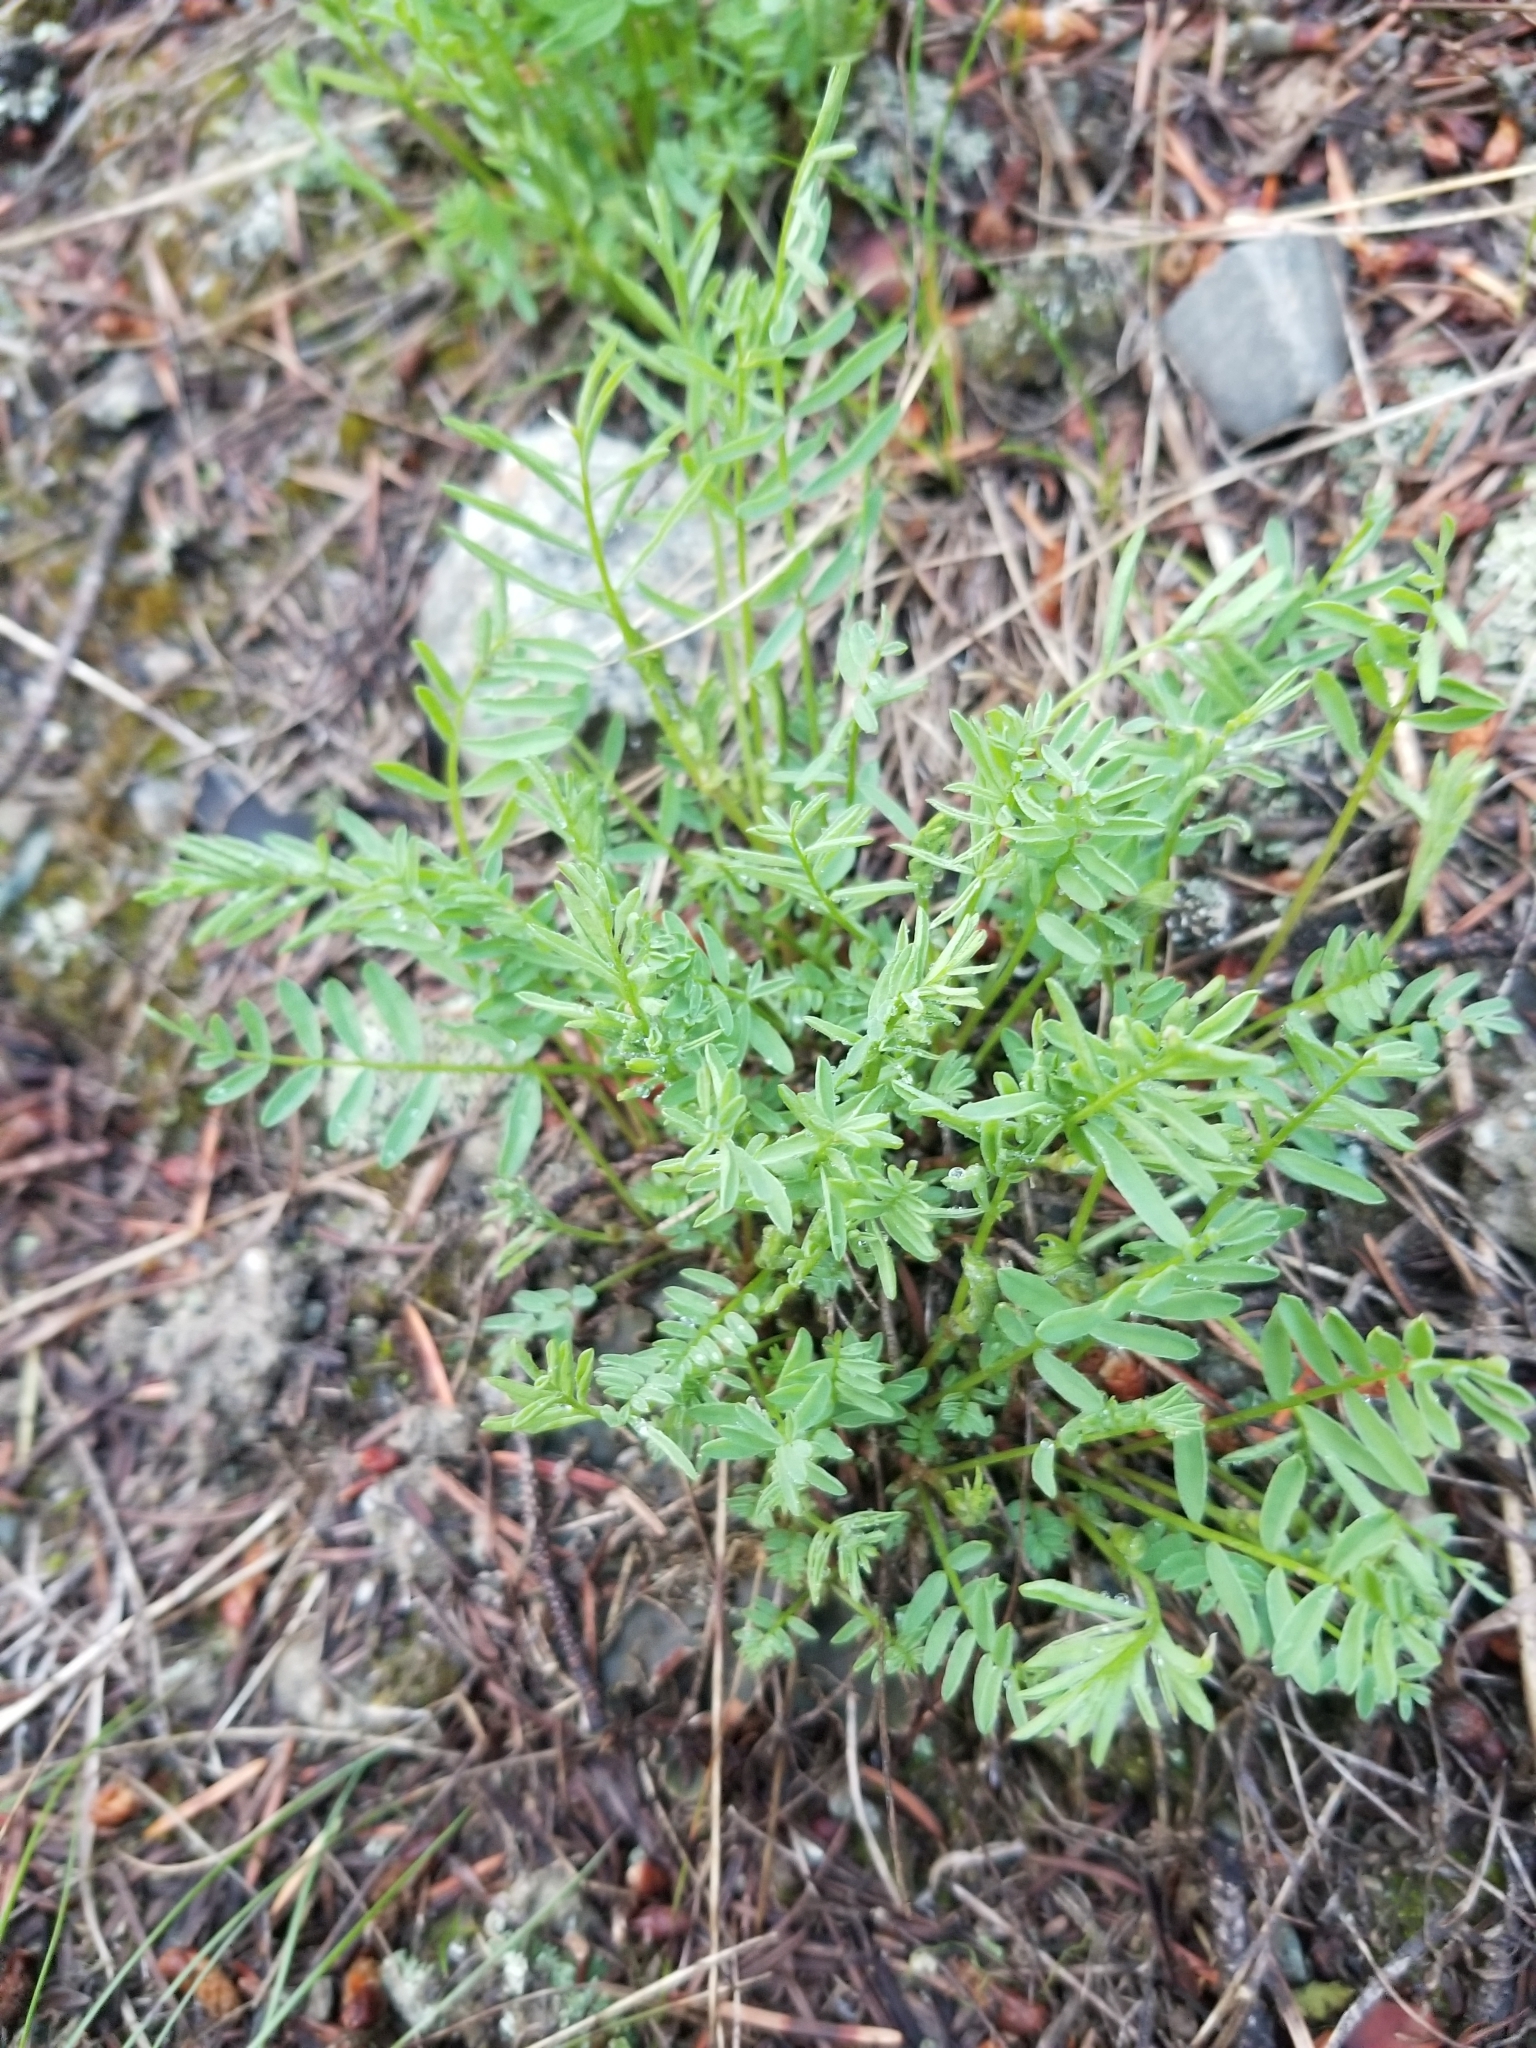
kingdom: Plantae
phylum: Tracheophyta
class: Magnoliopsida
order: Fabales
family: Fabaceae
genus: Astragalus
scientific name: Astragalus miser
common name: Timber milkvetch
